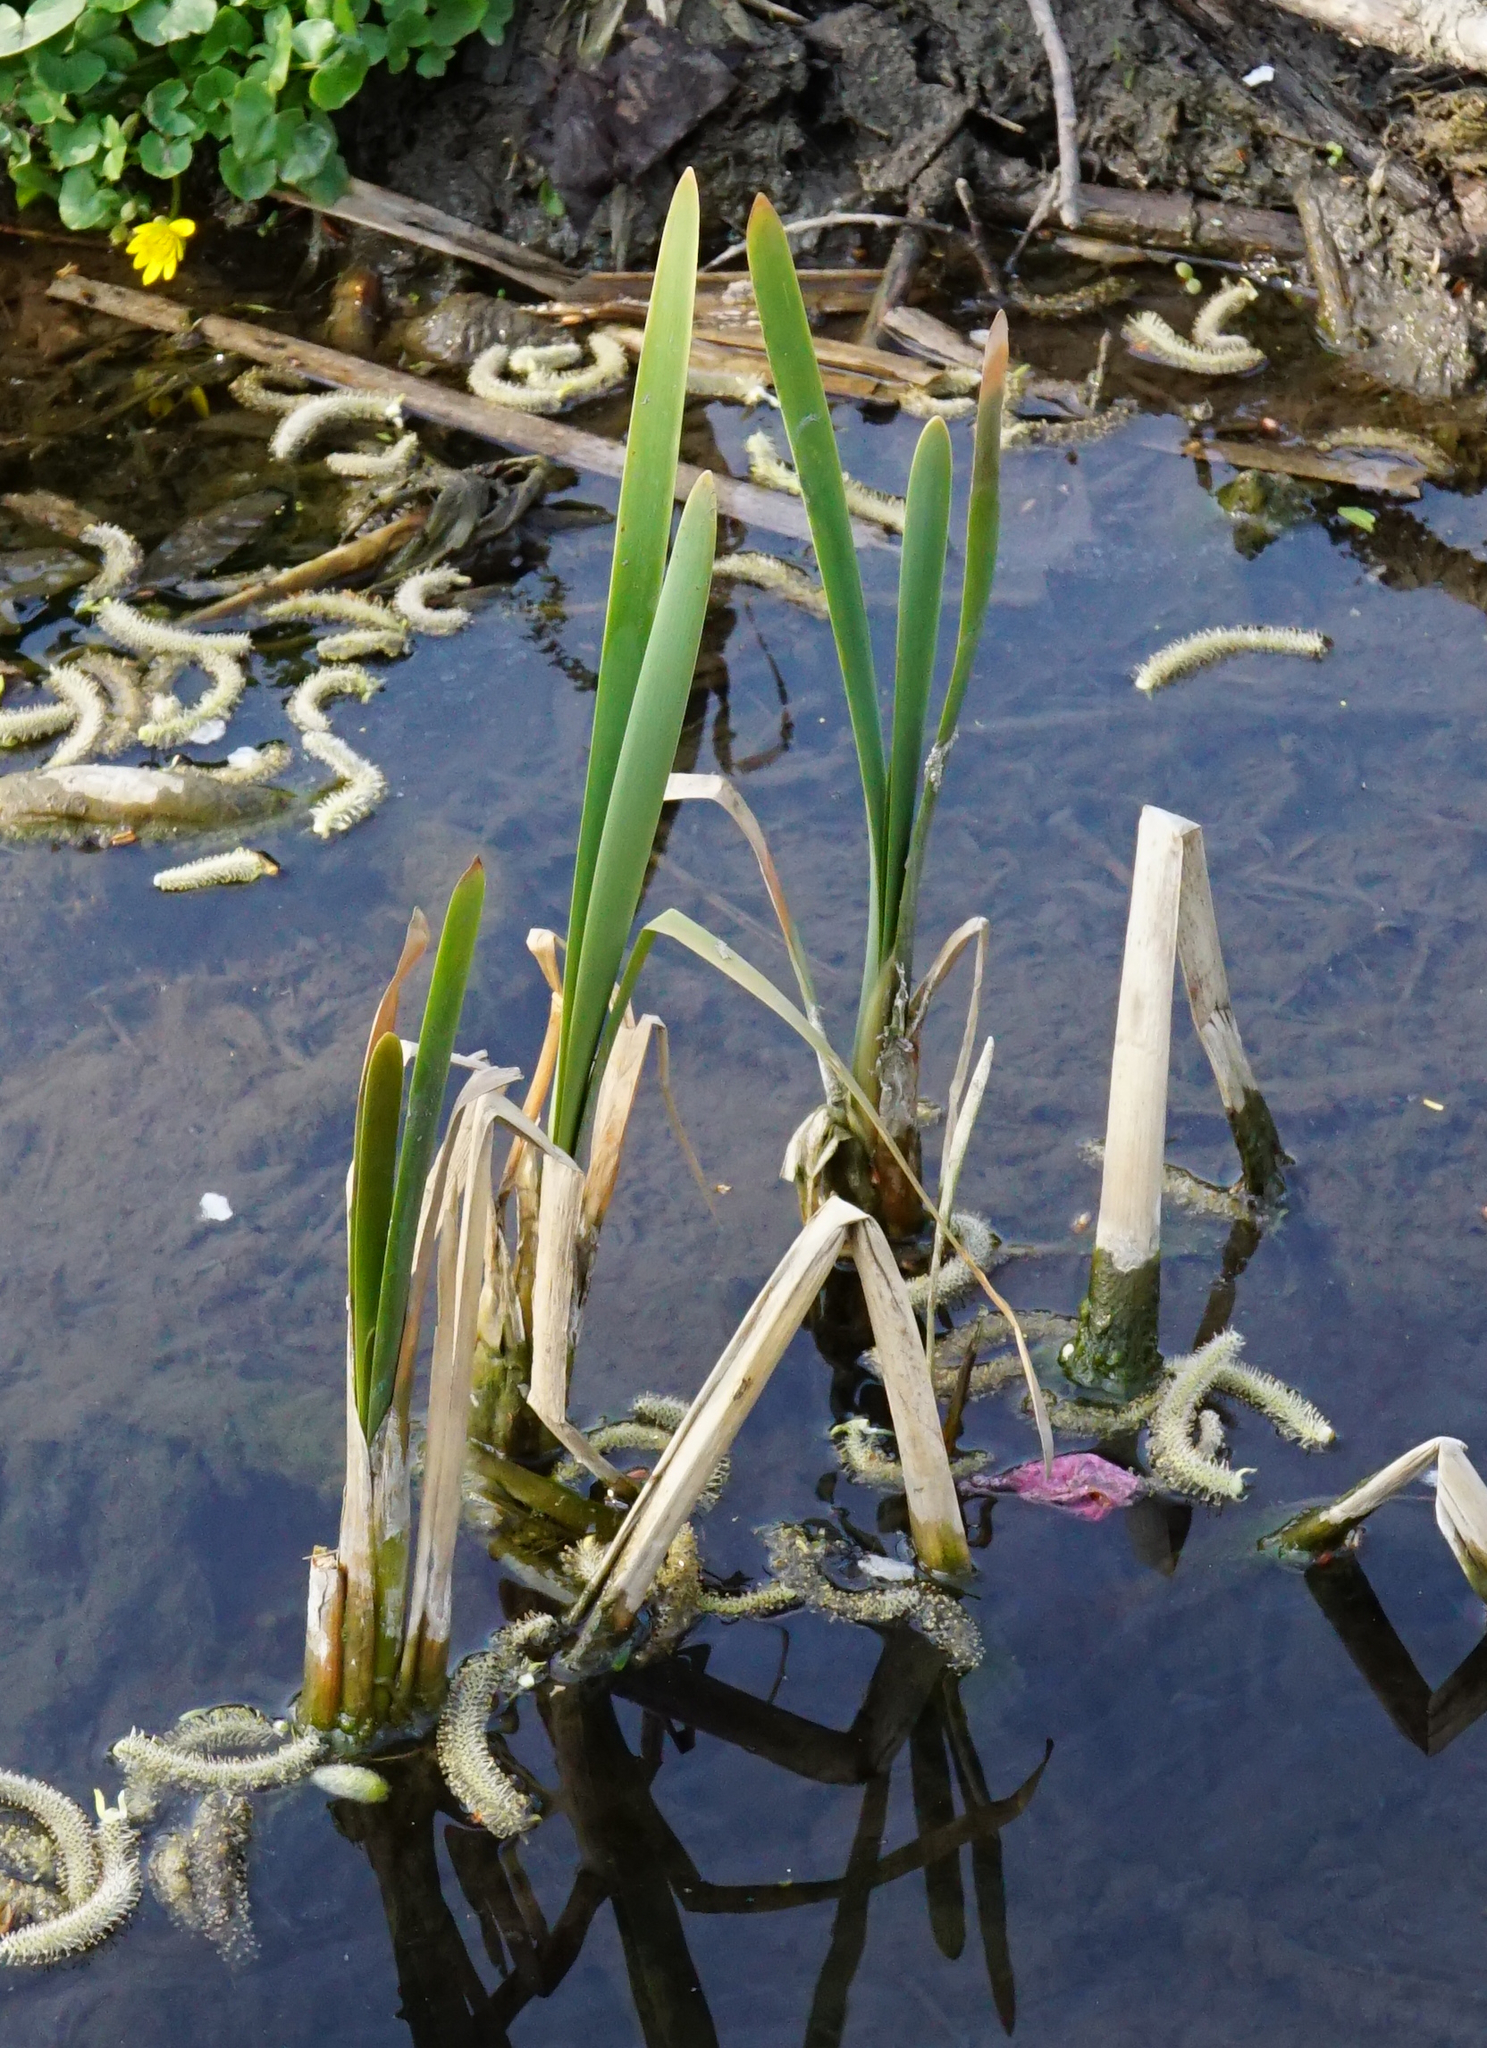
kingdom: Plantae
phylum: Tracheophyta
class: Liliopsida
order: Poales
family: Typhaceae
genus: Typha
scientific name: Typha latifolia
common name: Broadleaf cattail
